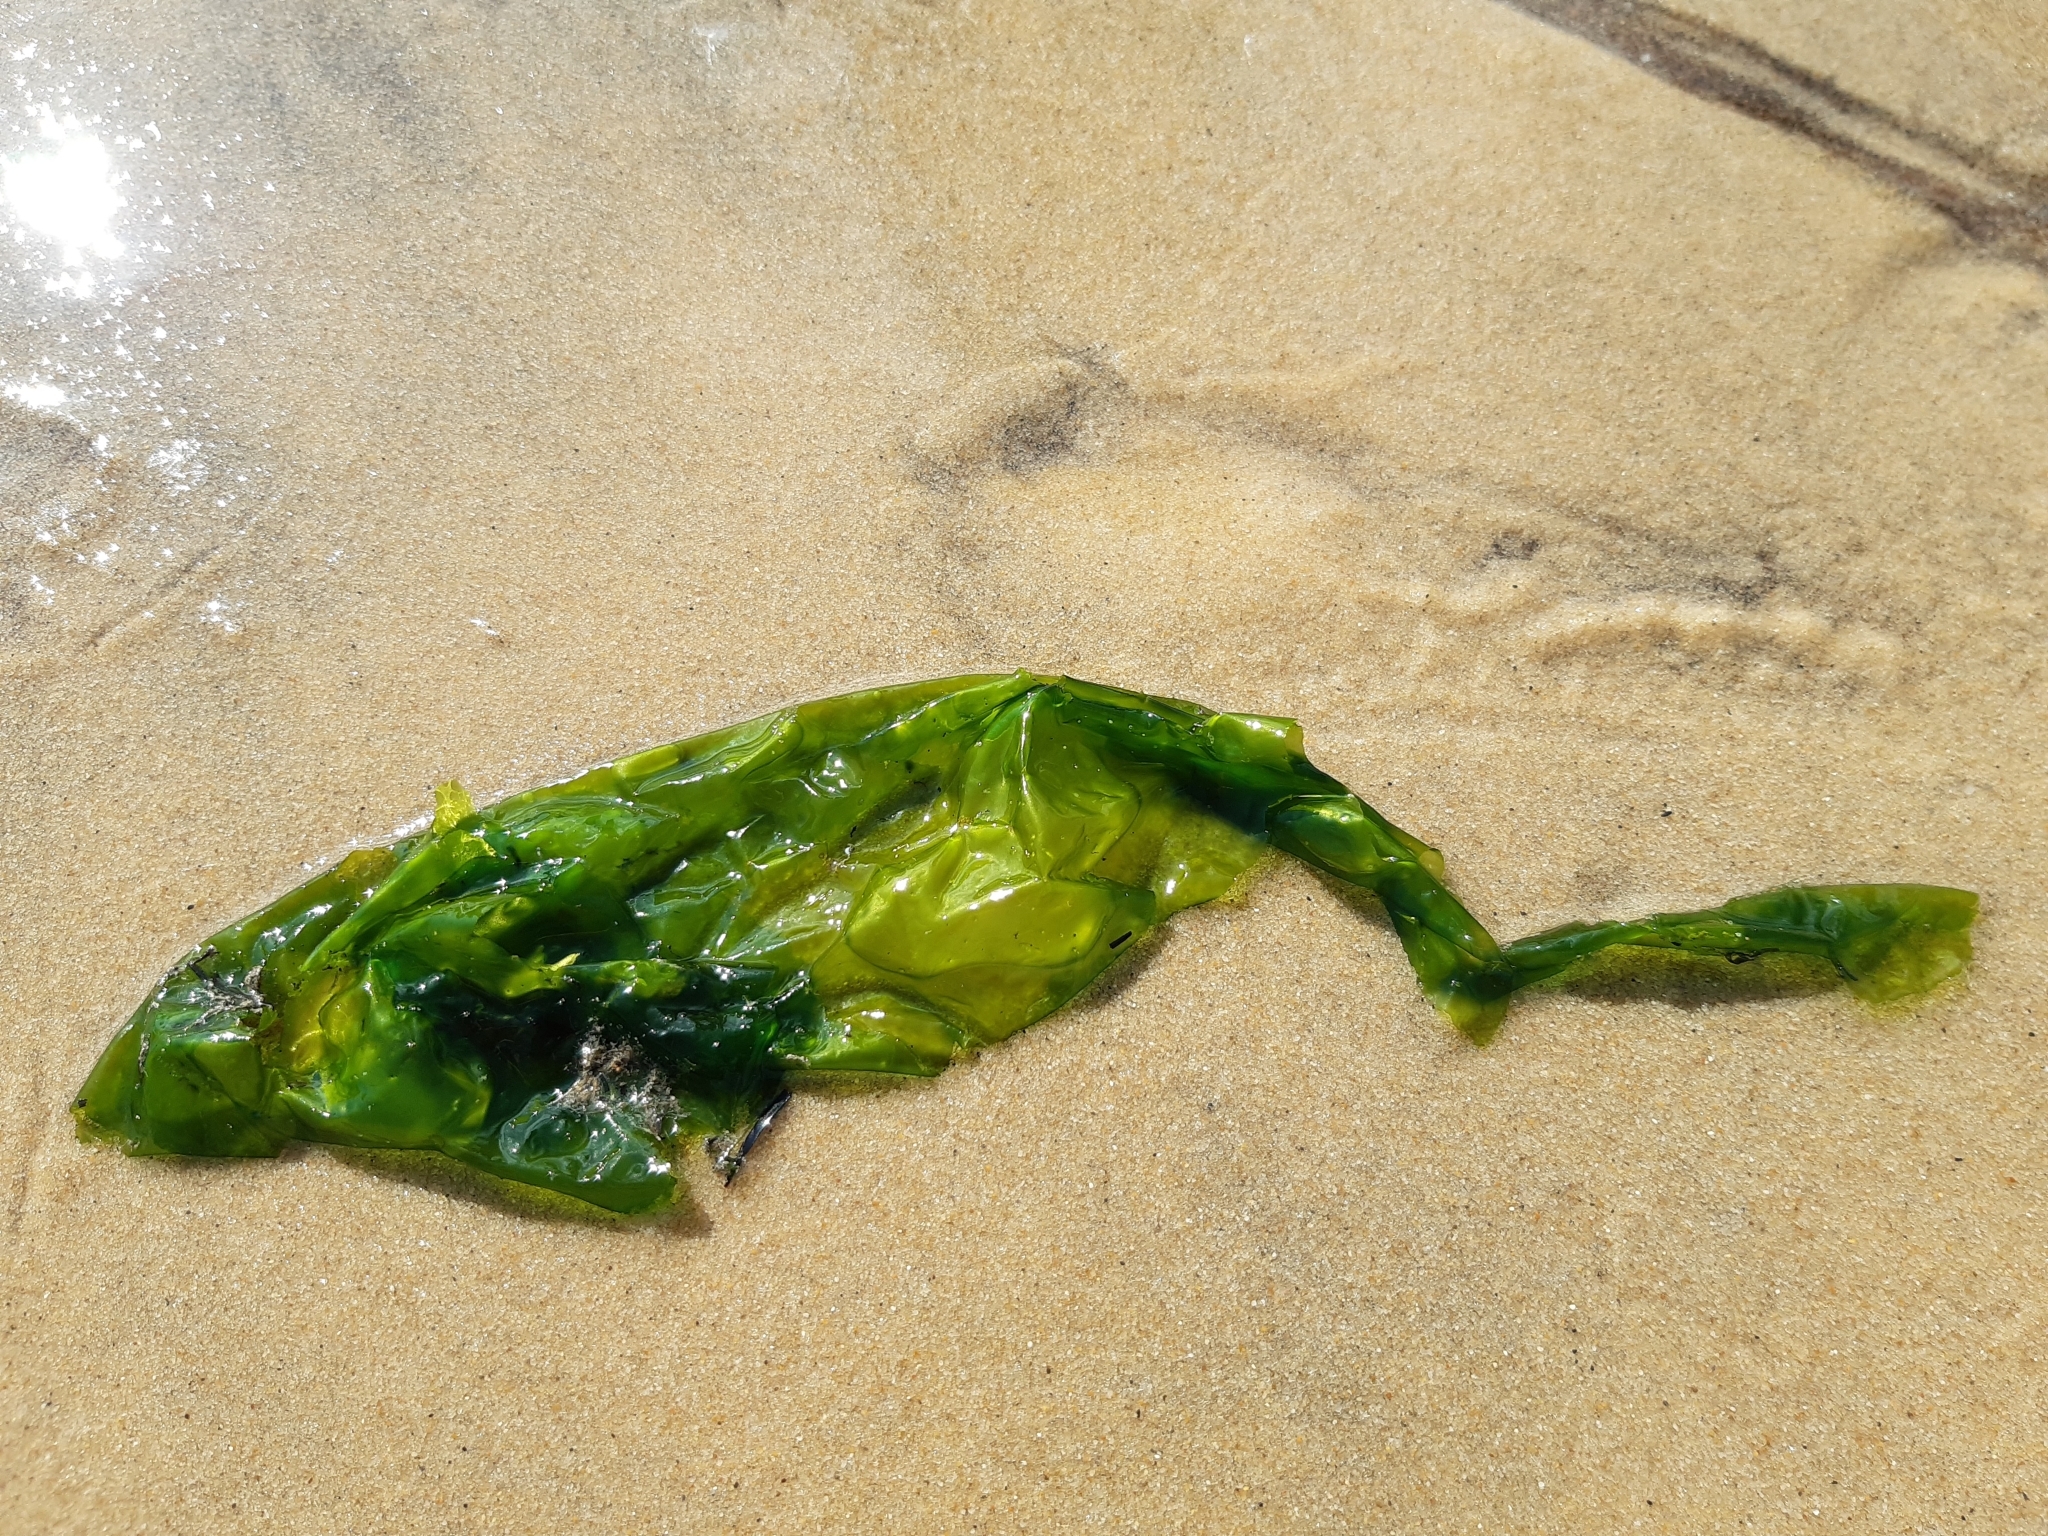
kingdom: Plantae
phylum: Chlorophyta
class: Ulvophyceae
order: Ulvales
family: Ulvaceae
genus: Ulva
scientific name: Ulva lactuca
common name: Sea lettuce
